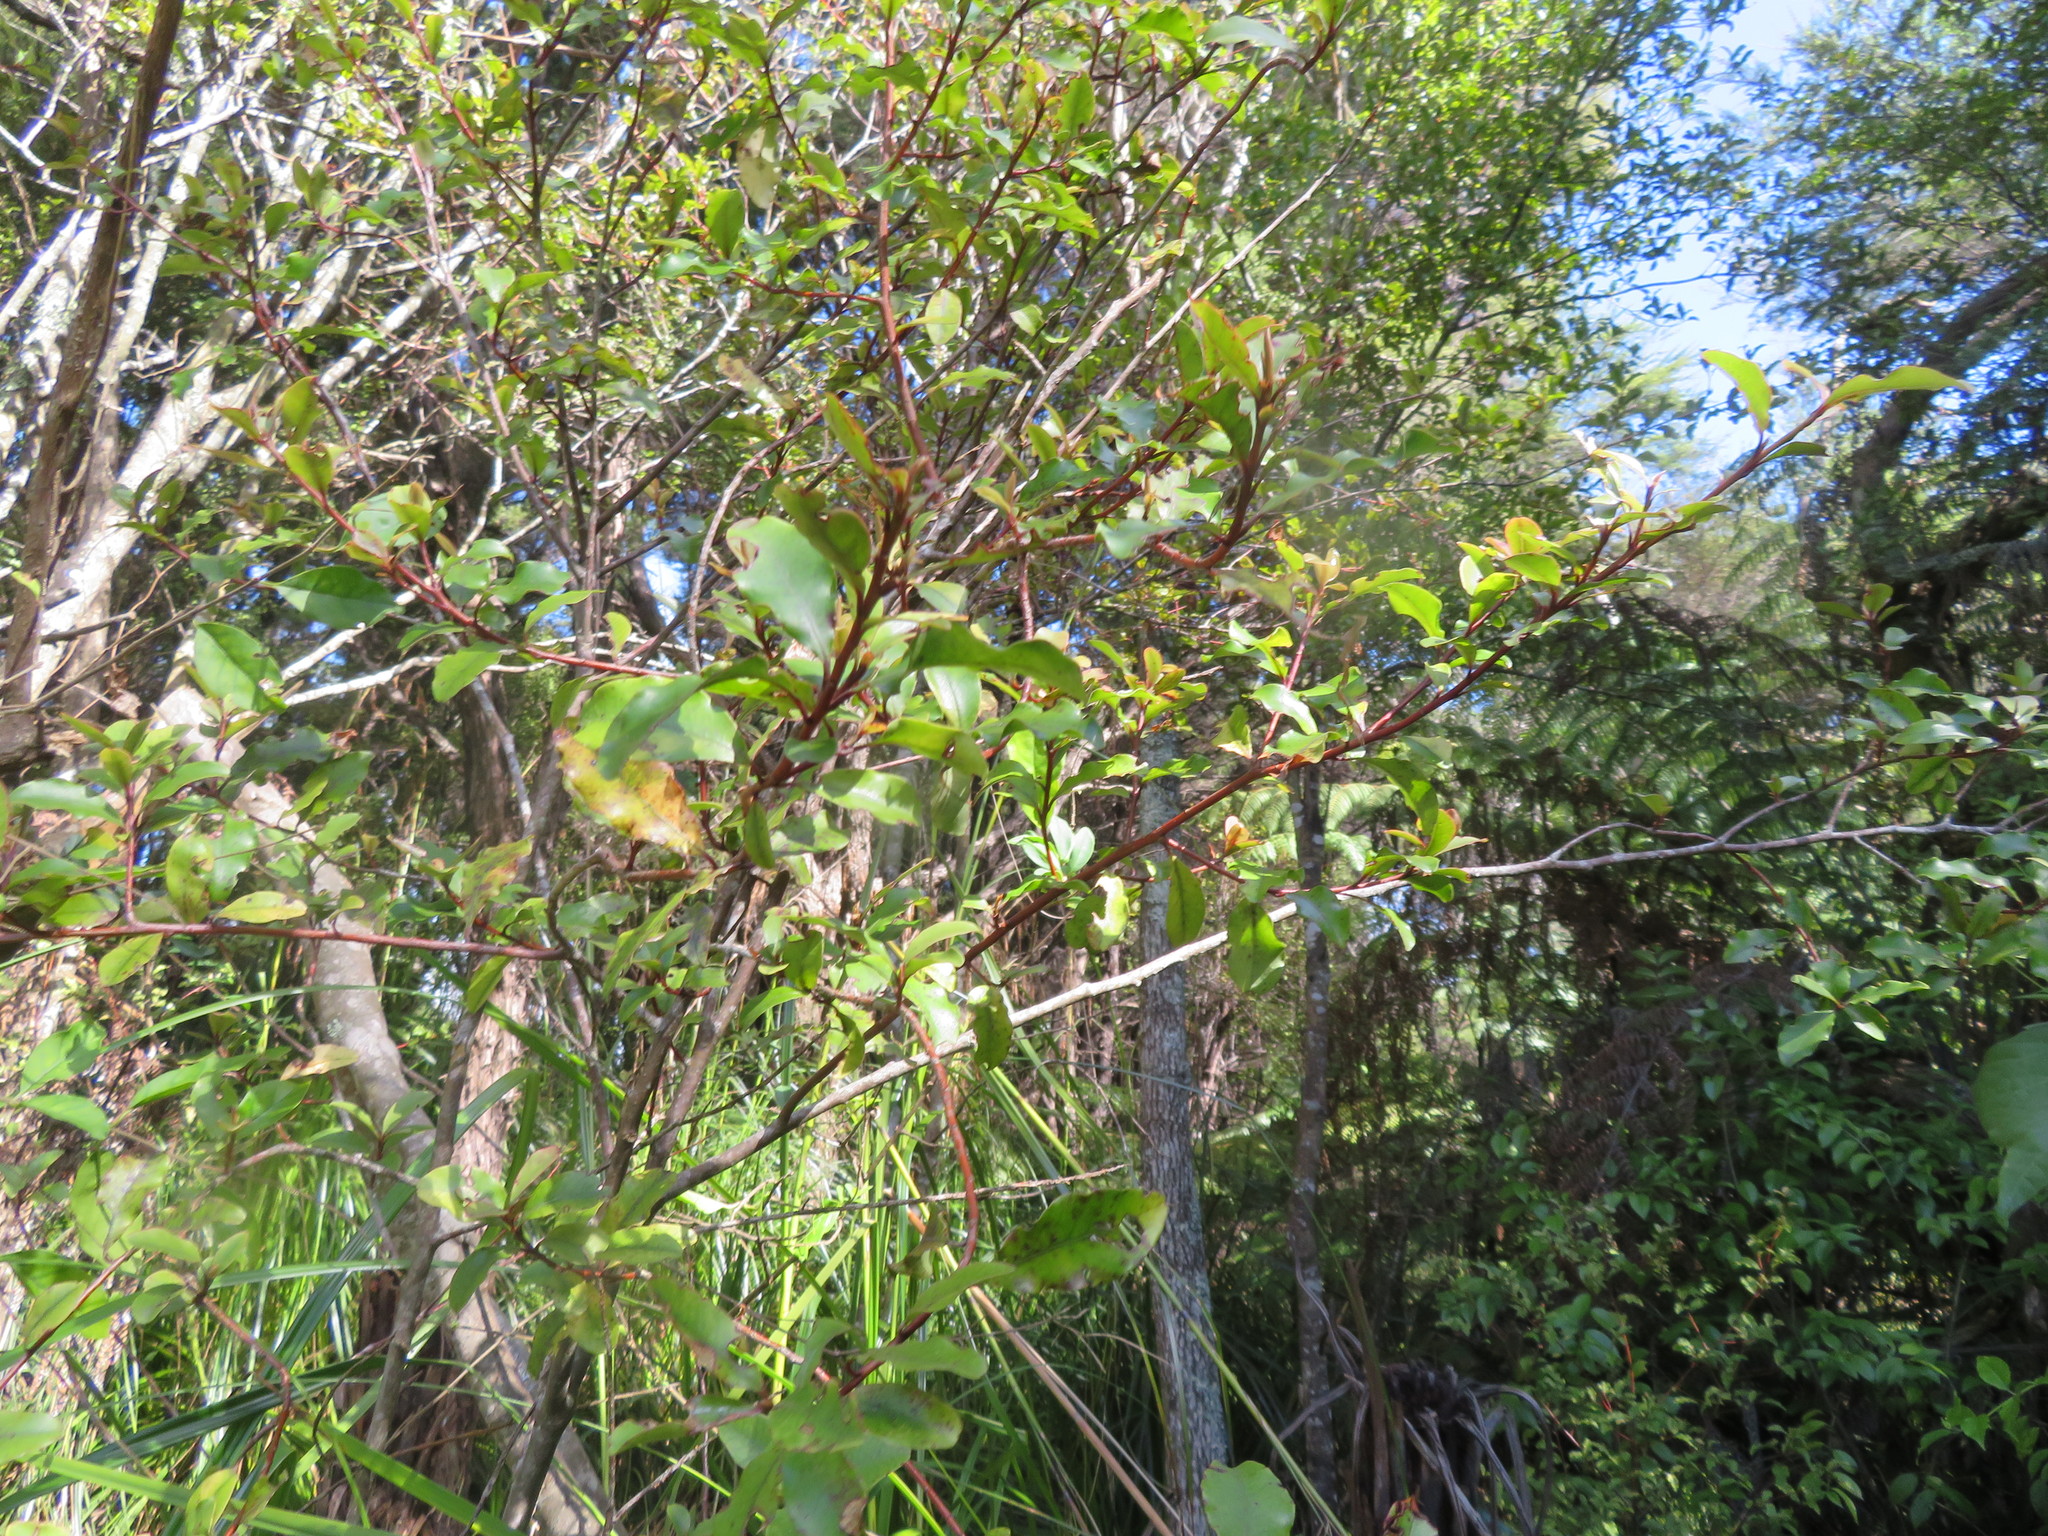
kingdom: Plantae
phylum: Tracheophyta
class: Magnoliopsida
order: Ericales
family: Primulaceae
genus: Myrsine
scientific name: Myrsine australis
